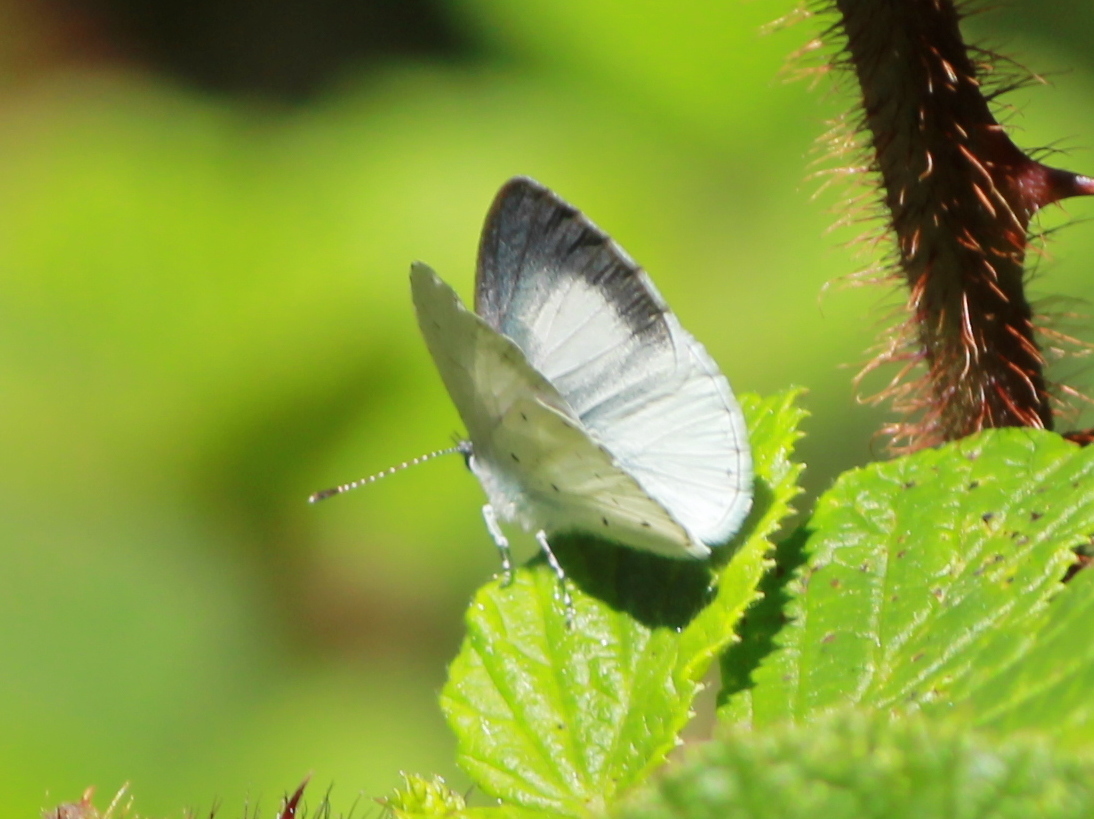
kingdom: Animalia
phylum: Arthropoda
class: Insecta
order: Lepidoptera
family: Lycaenidae
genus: Udara
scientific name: Udara akasa
